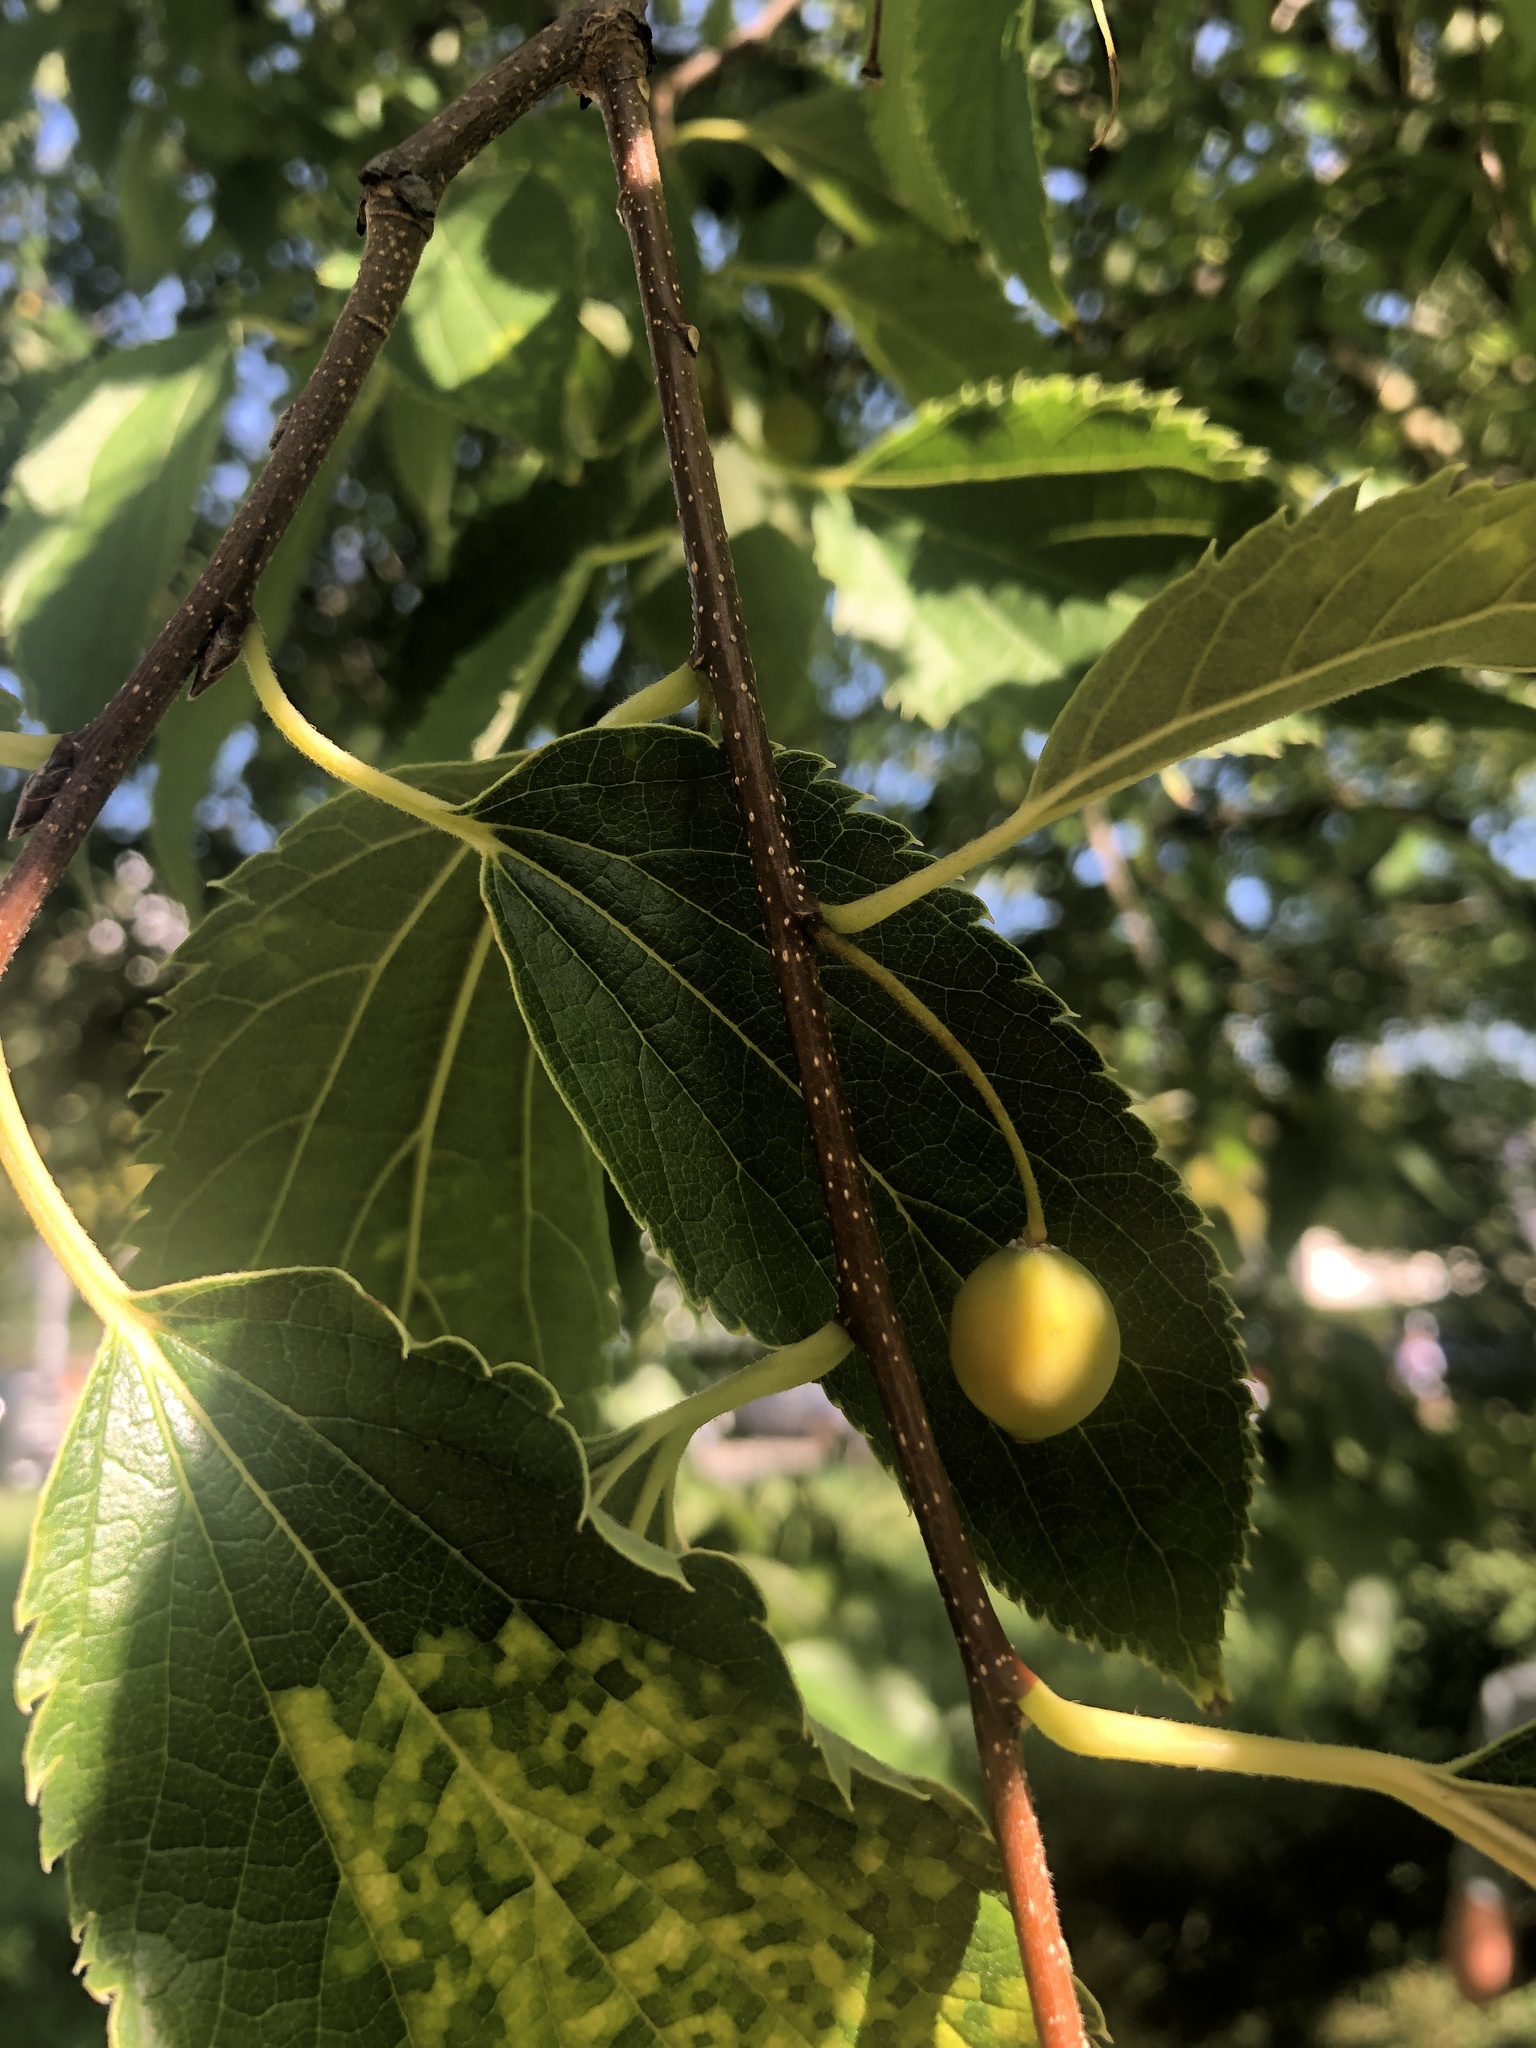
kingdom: Plantae
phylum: Tracheophyta
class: Magnoliopsida
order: Rosales
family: Cannabaceae
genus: Celtis
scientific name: Celtis australis
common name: European hackberry
